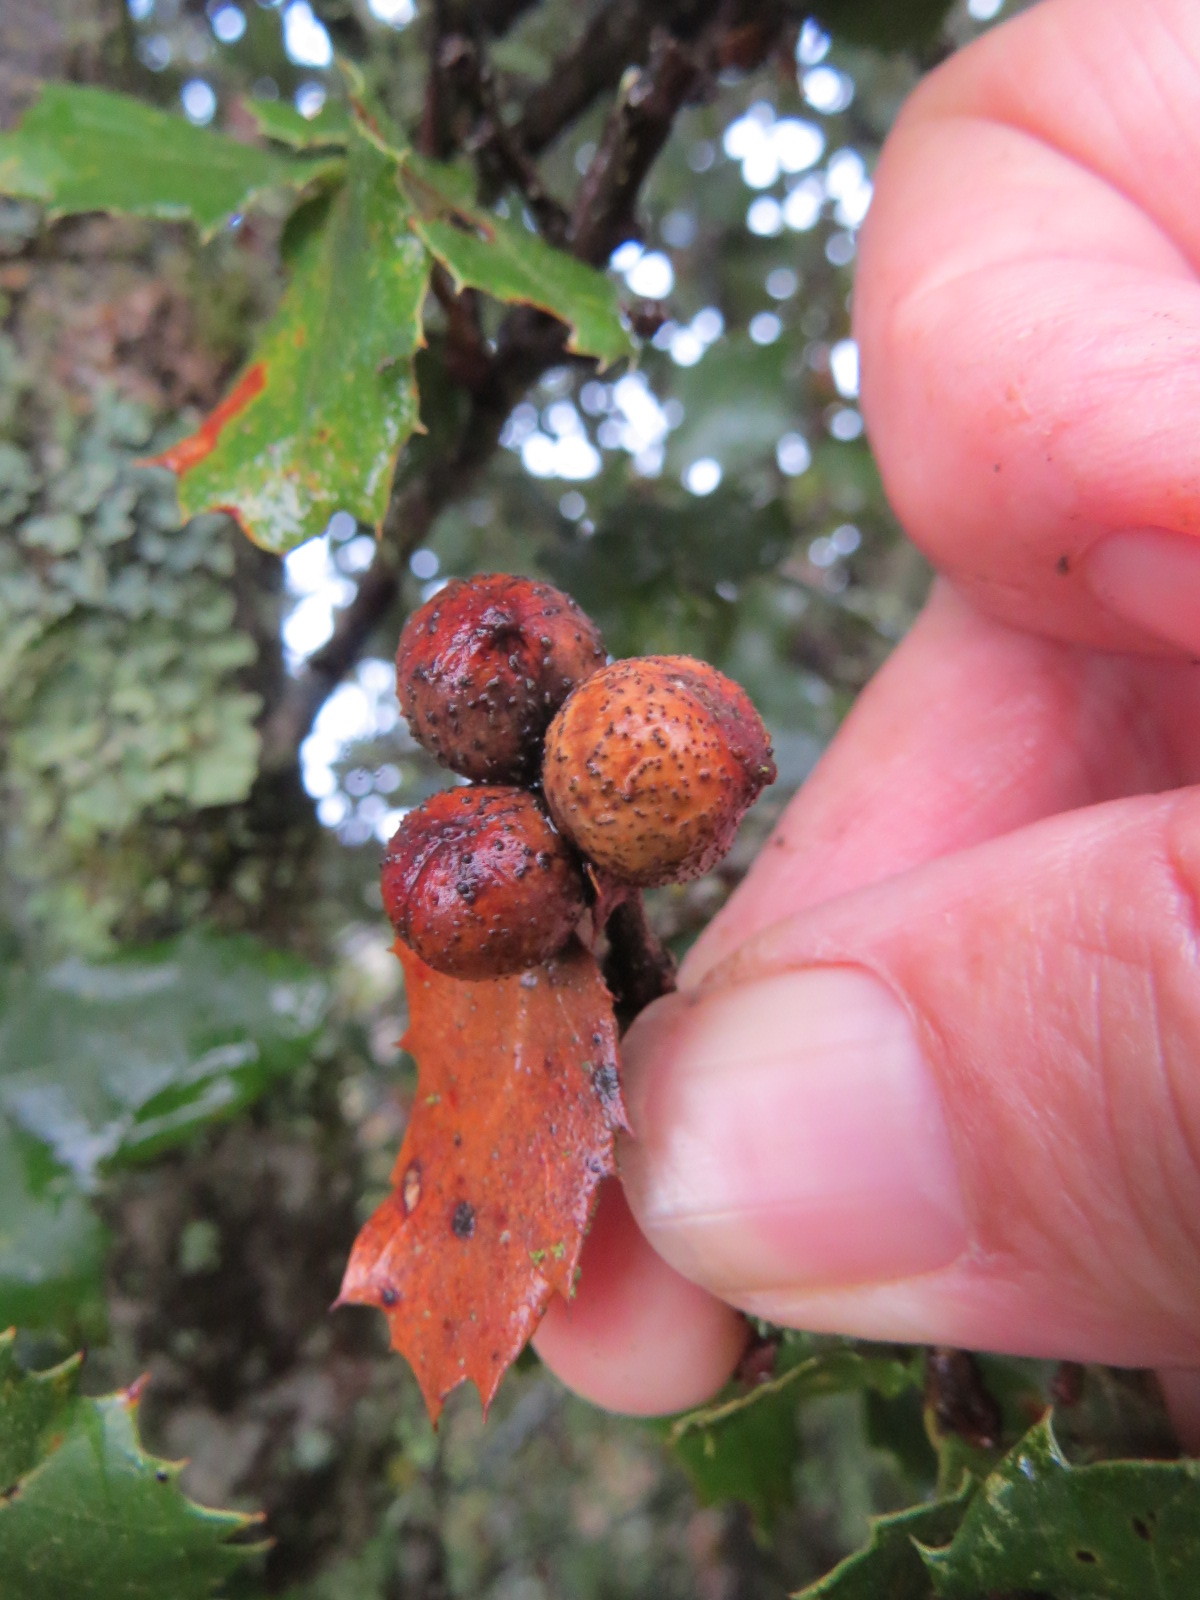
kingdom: Animalia
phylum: Arthropoda
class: Insecta
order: Hymenoptera
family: Cynipidae
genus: Heteroecus
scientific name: Heteroecus
